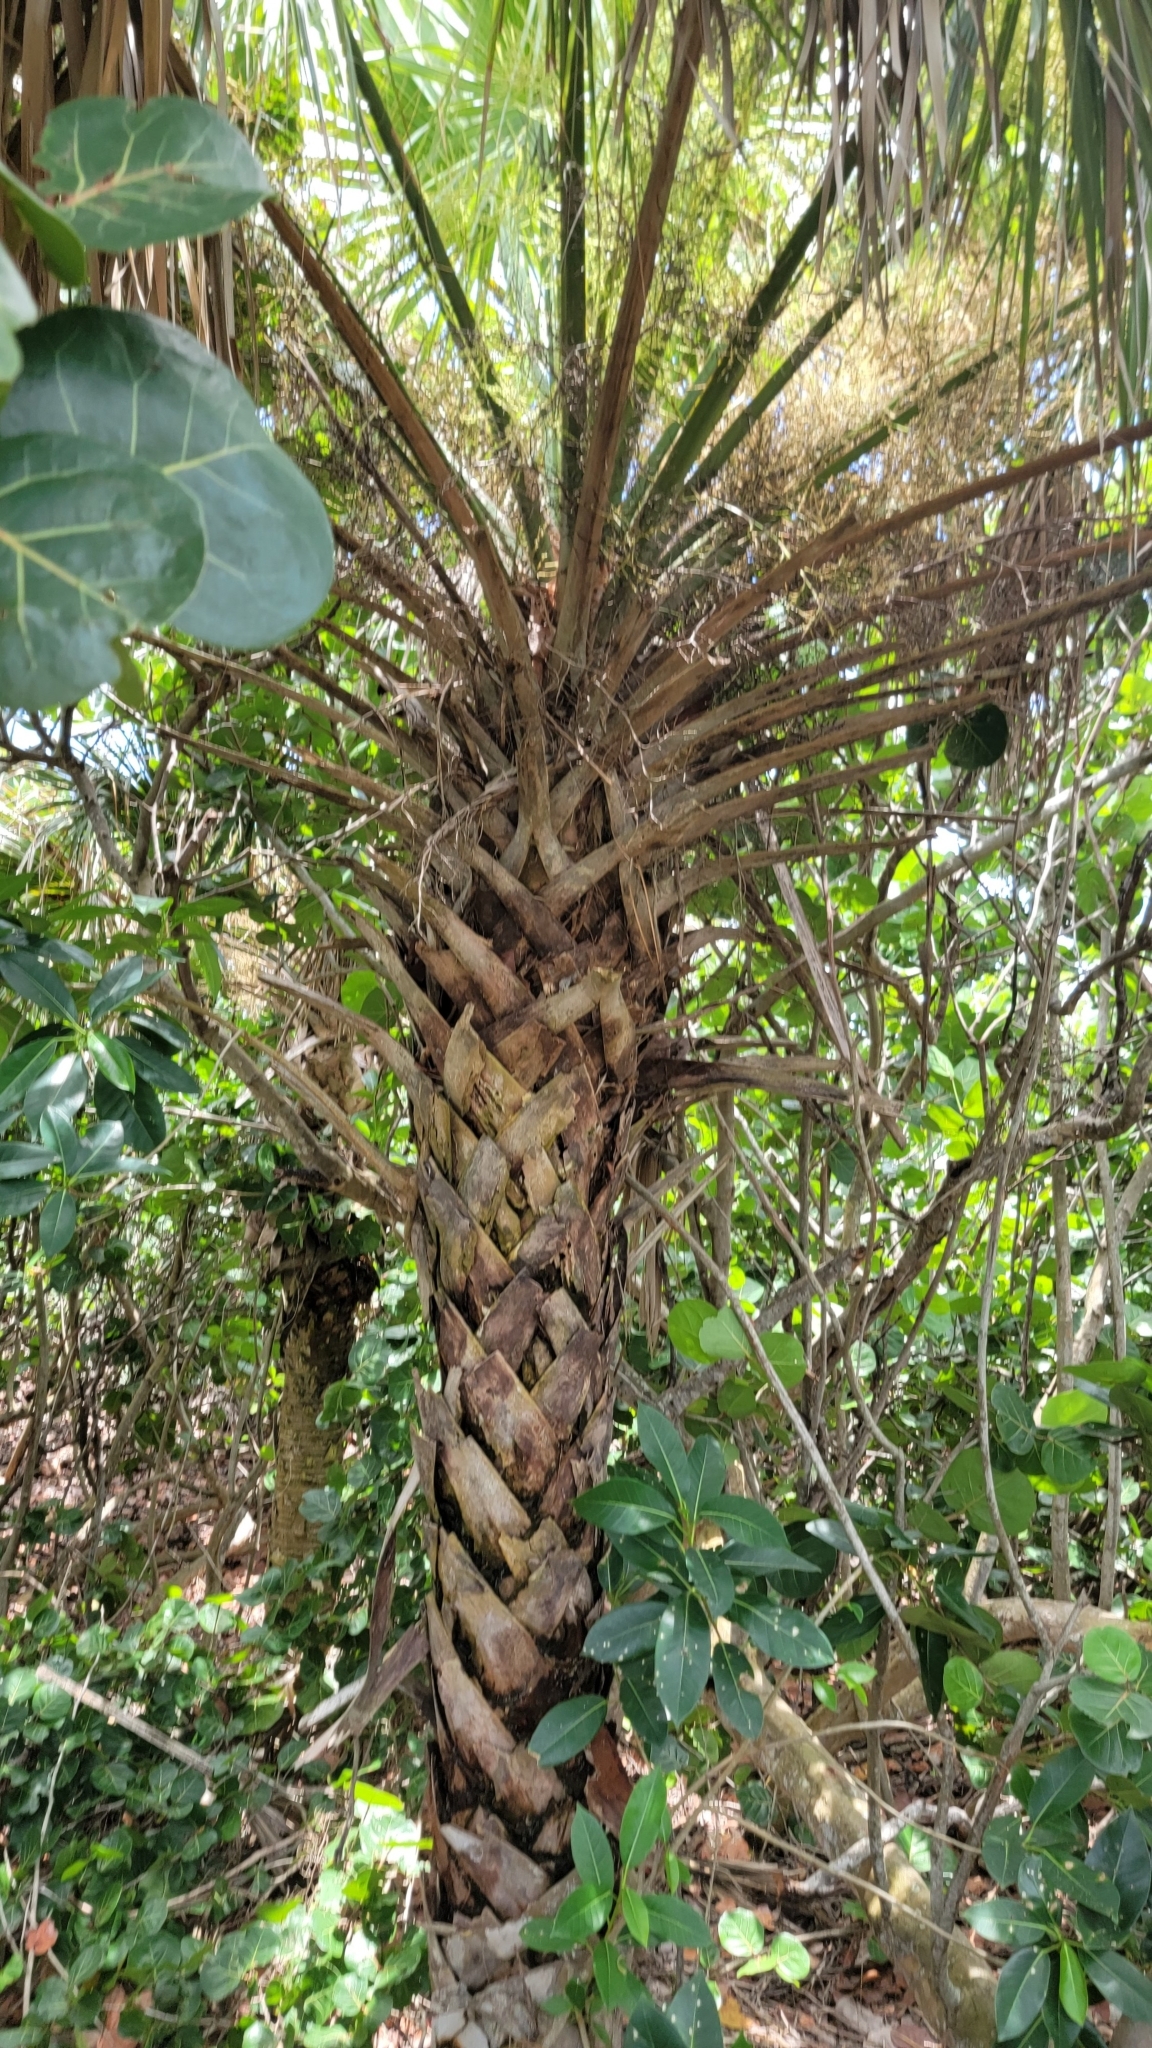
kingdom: Plantae
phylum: Tracheophyta
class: Liliopsida
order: Arecales
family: Arecaceae
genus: Sabal
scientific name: Sabal palmetto
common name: Blue palmetto
